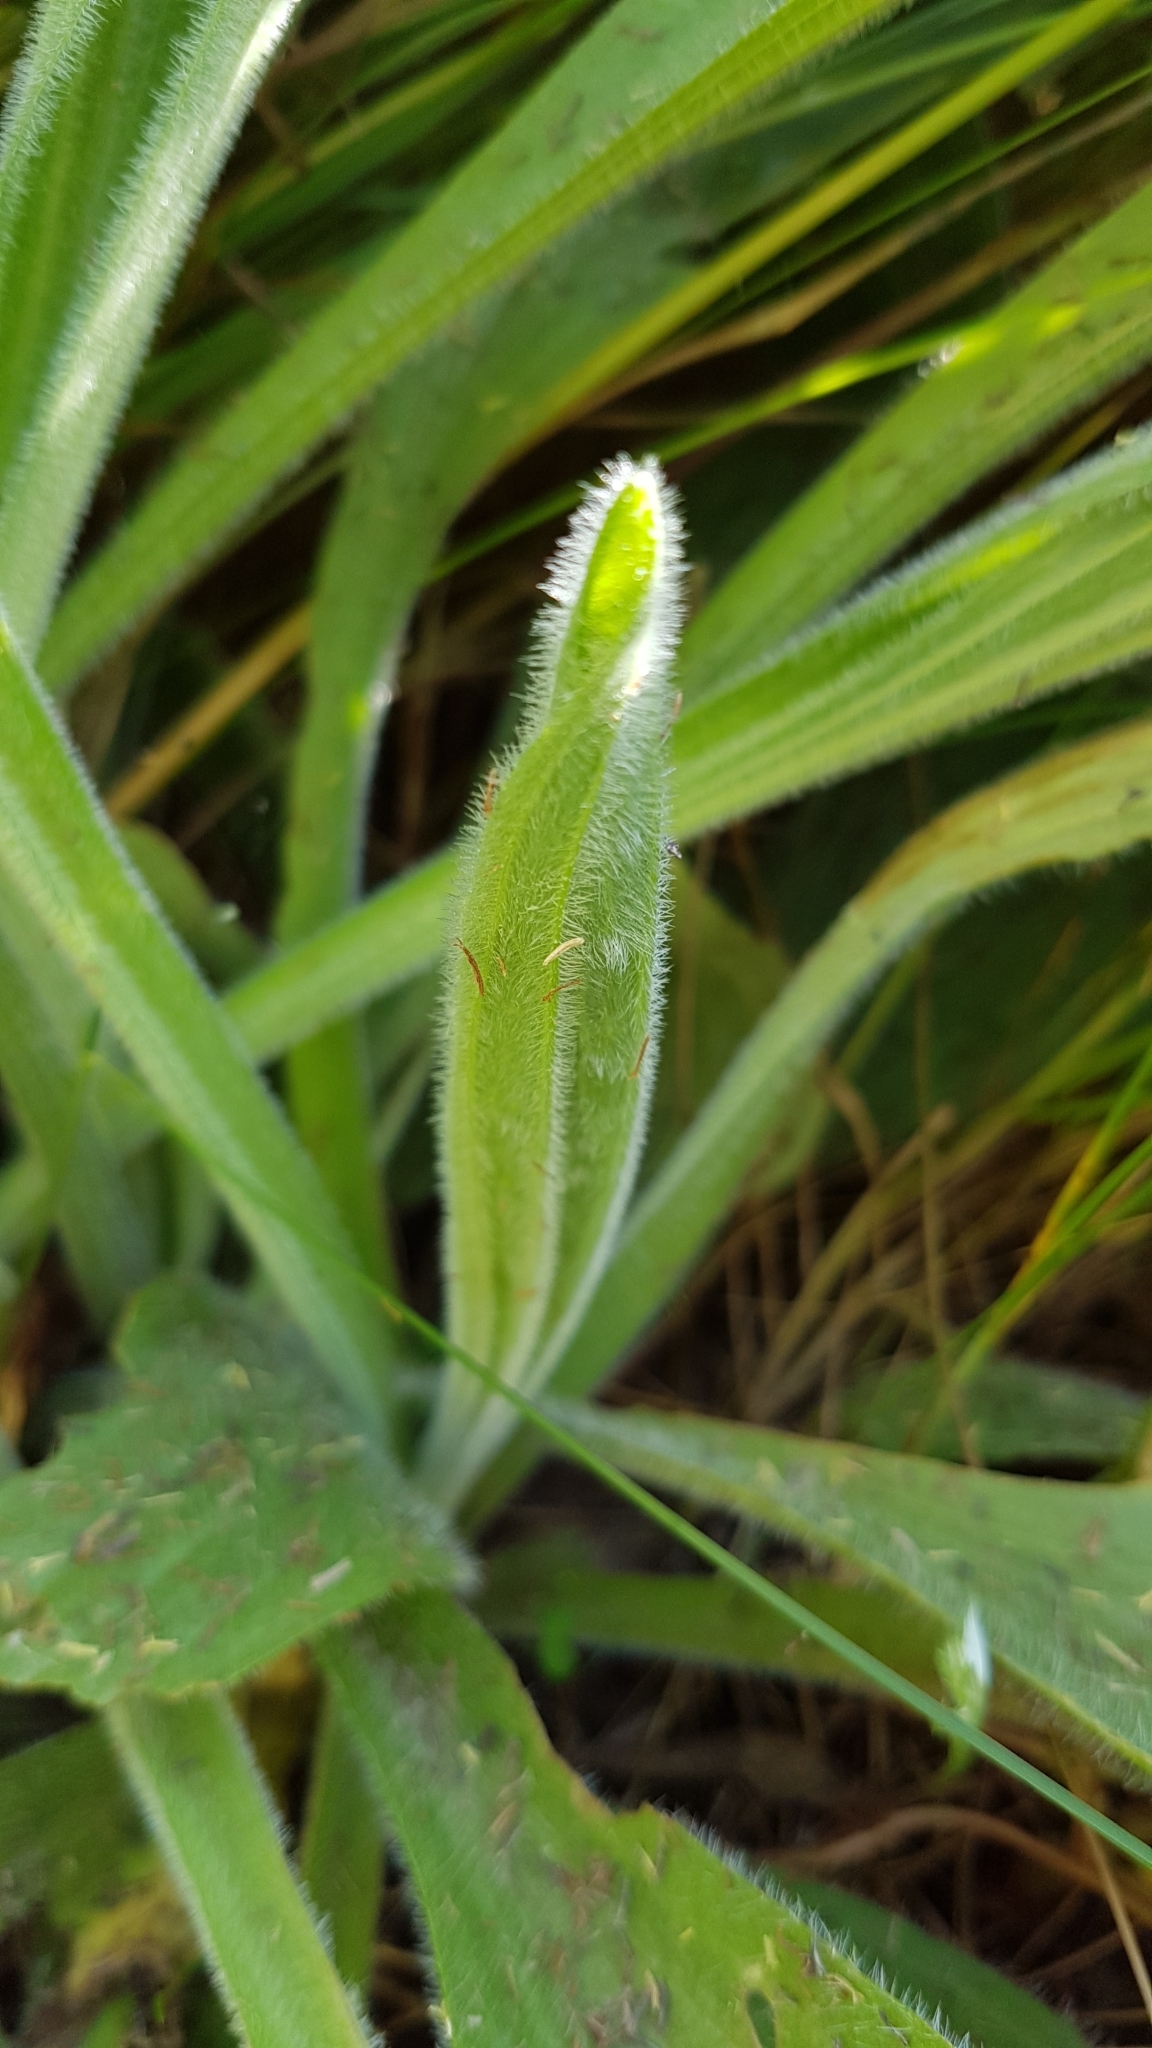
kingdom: Plantae
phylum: Tracheophyta
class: Magnoliopsida
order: Lamiales
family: Plantaginaceae
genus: Plantago
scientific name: Plantago lanceolata
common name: Ribwort plantain
